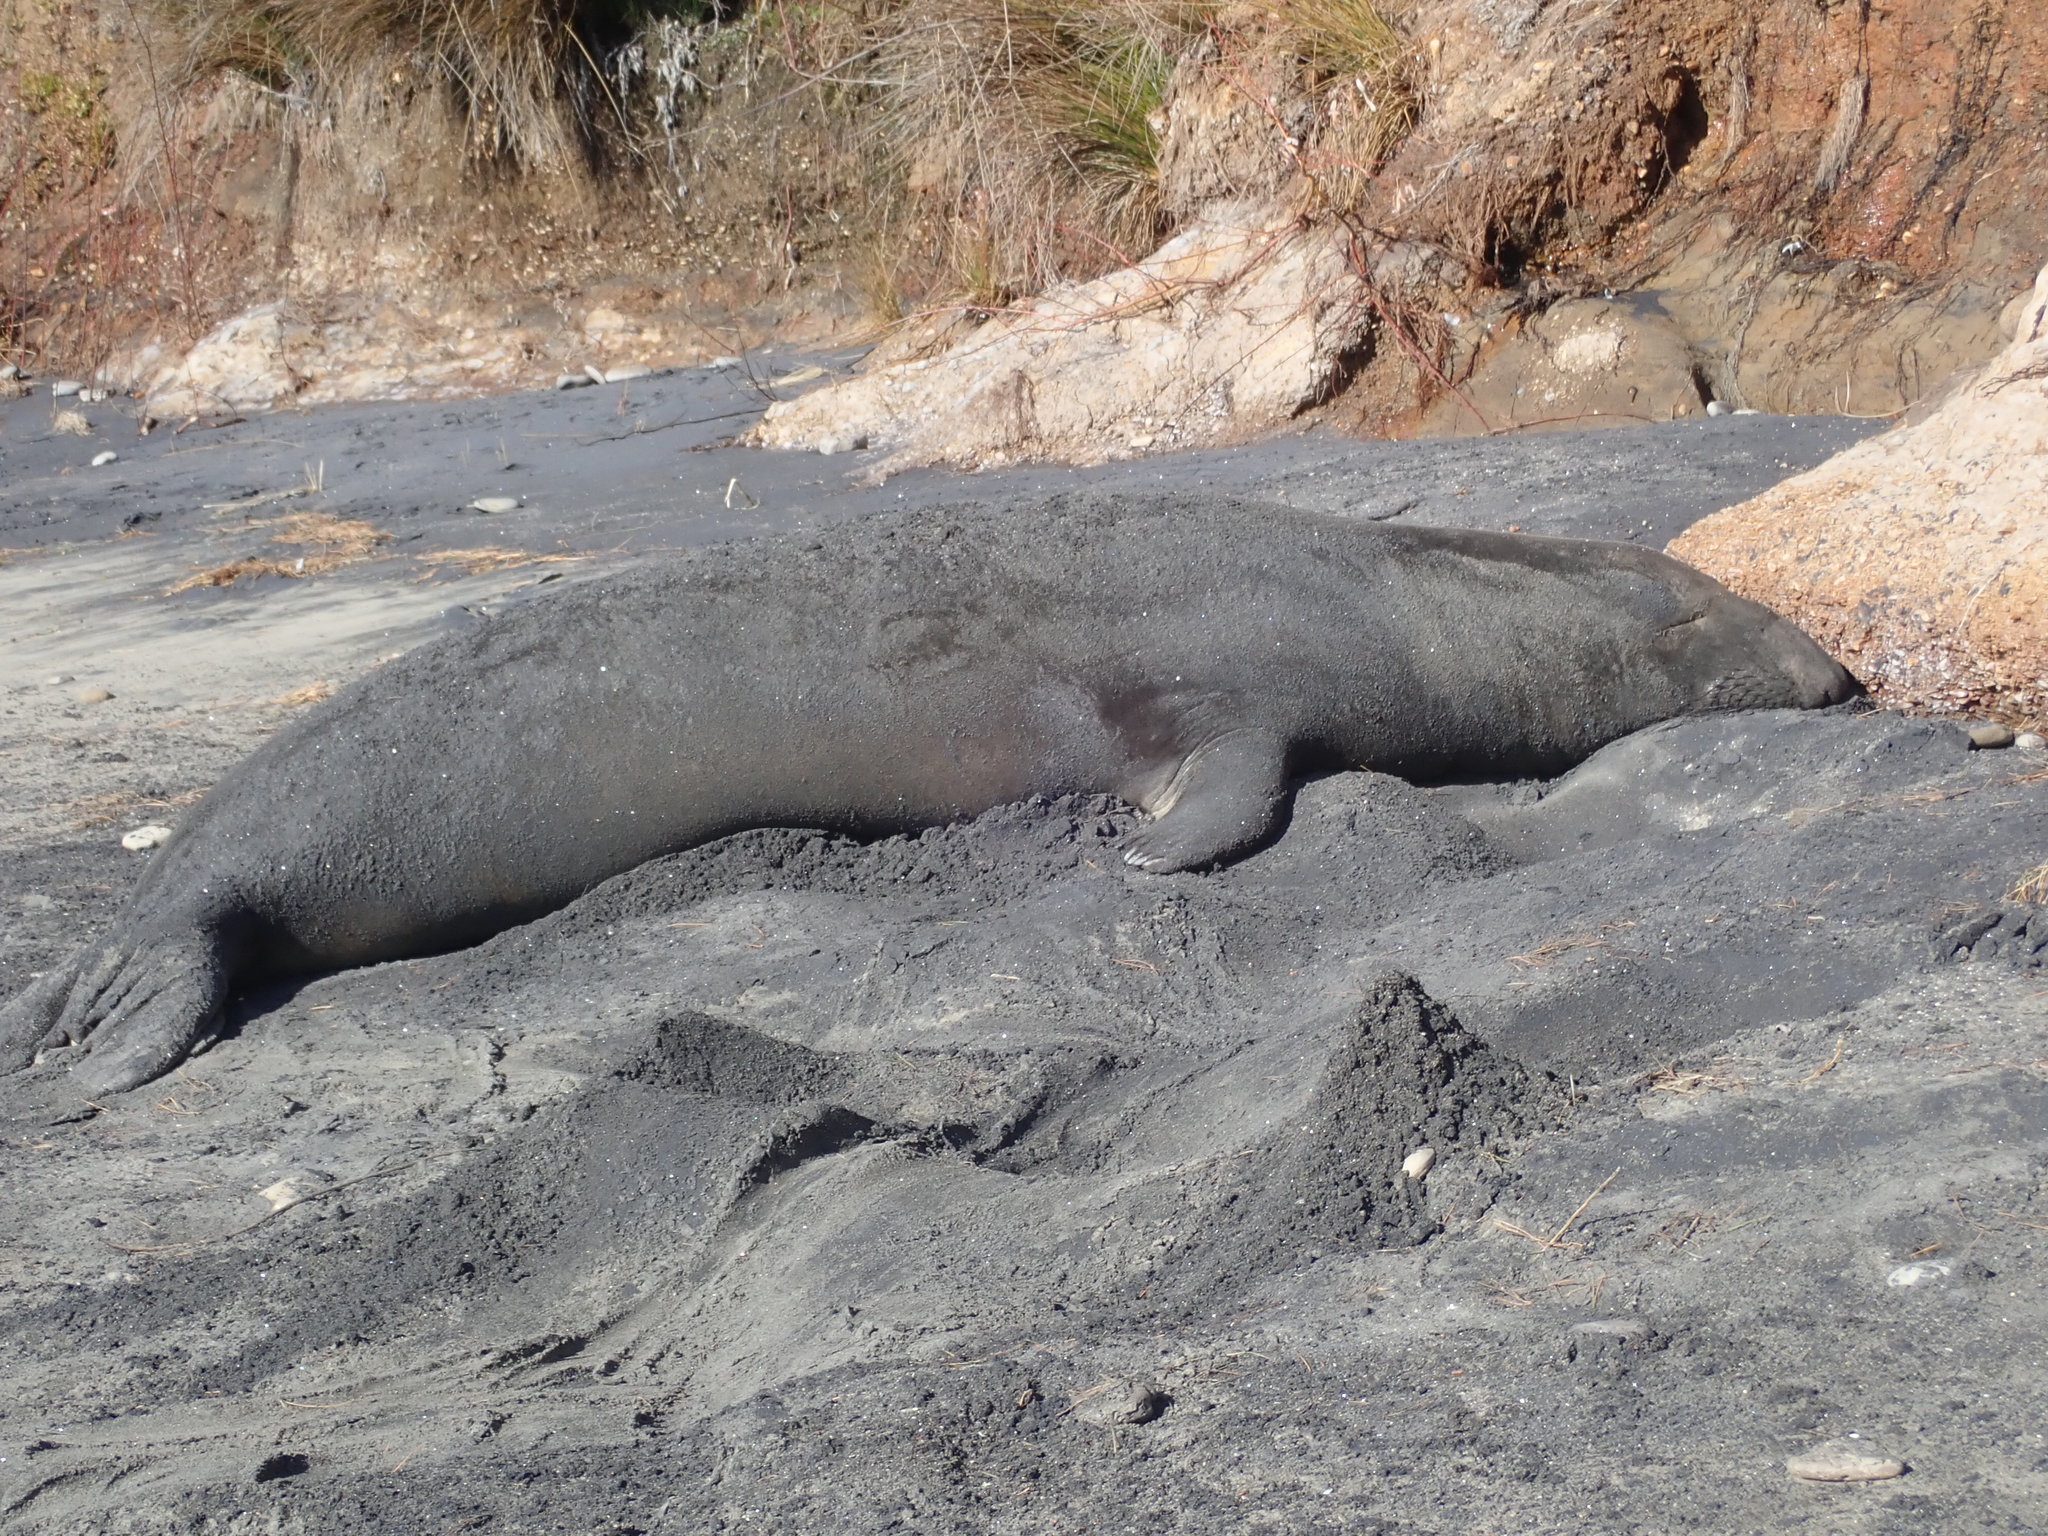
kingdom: Animalia
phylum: Chordata
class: Mammalia
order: Carnivora
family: Phocidae
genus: Mirounga
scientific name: Mirounga angustirostris
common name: Northern elephant seal
